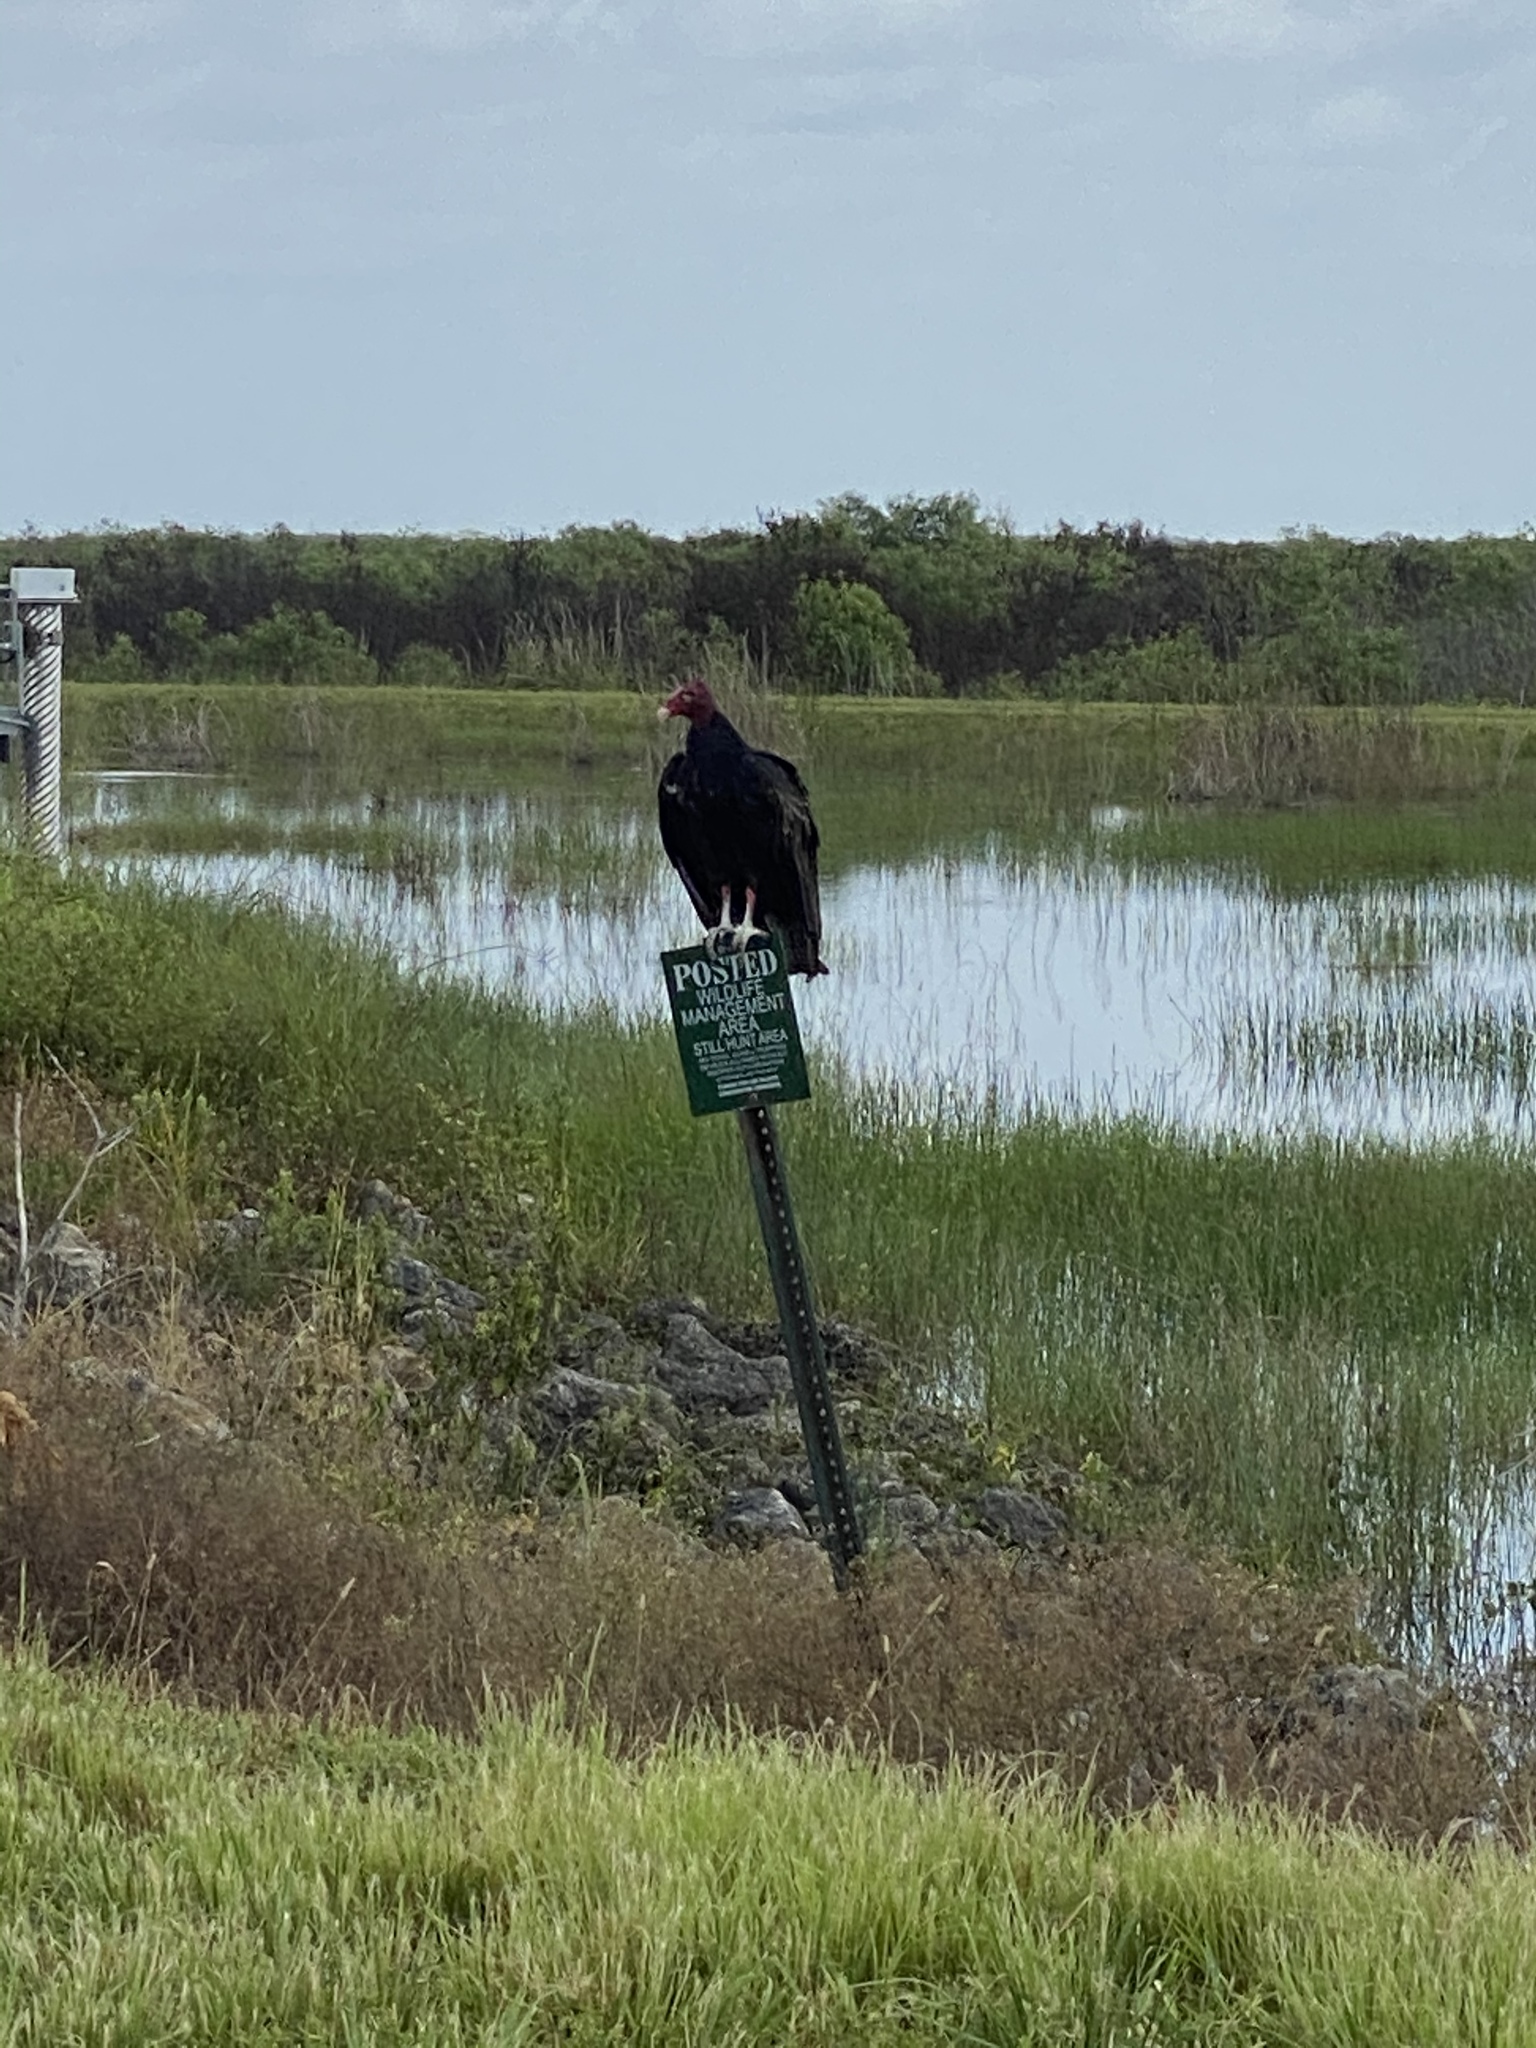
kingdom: Animalia
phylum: Chordata
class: Aves
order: Accipitriformes
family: Cathartidae
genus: Cathartes
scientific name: Cathartes aura
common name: Turkey vulture
